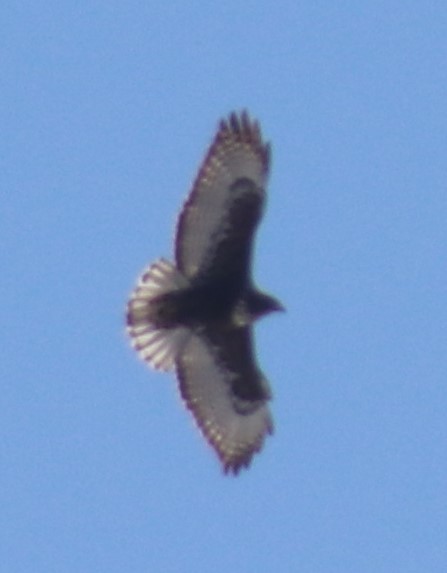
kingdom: Animalia
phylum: Chordata
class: Aves
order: Accipitriformes
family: Accipitridae
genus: Buteo
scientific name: Buteo jamaicensis
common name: Red-tailed hawk
